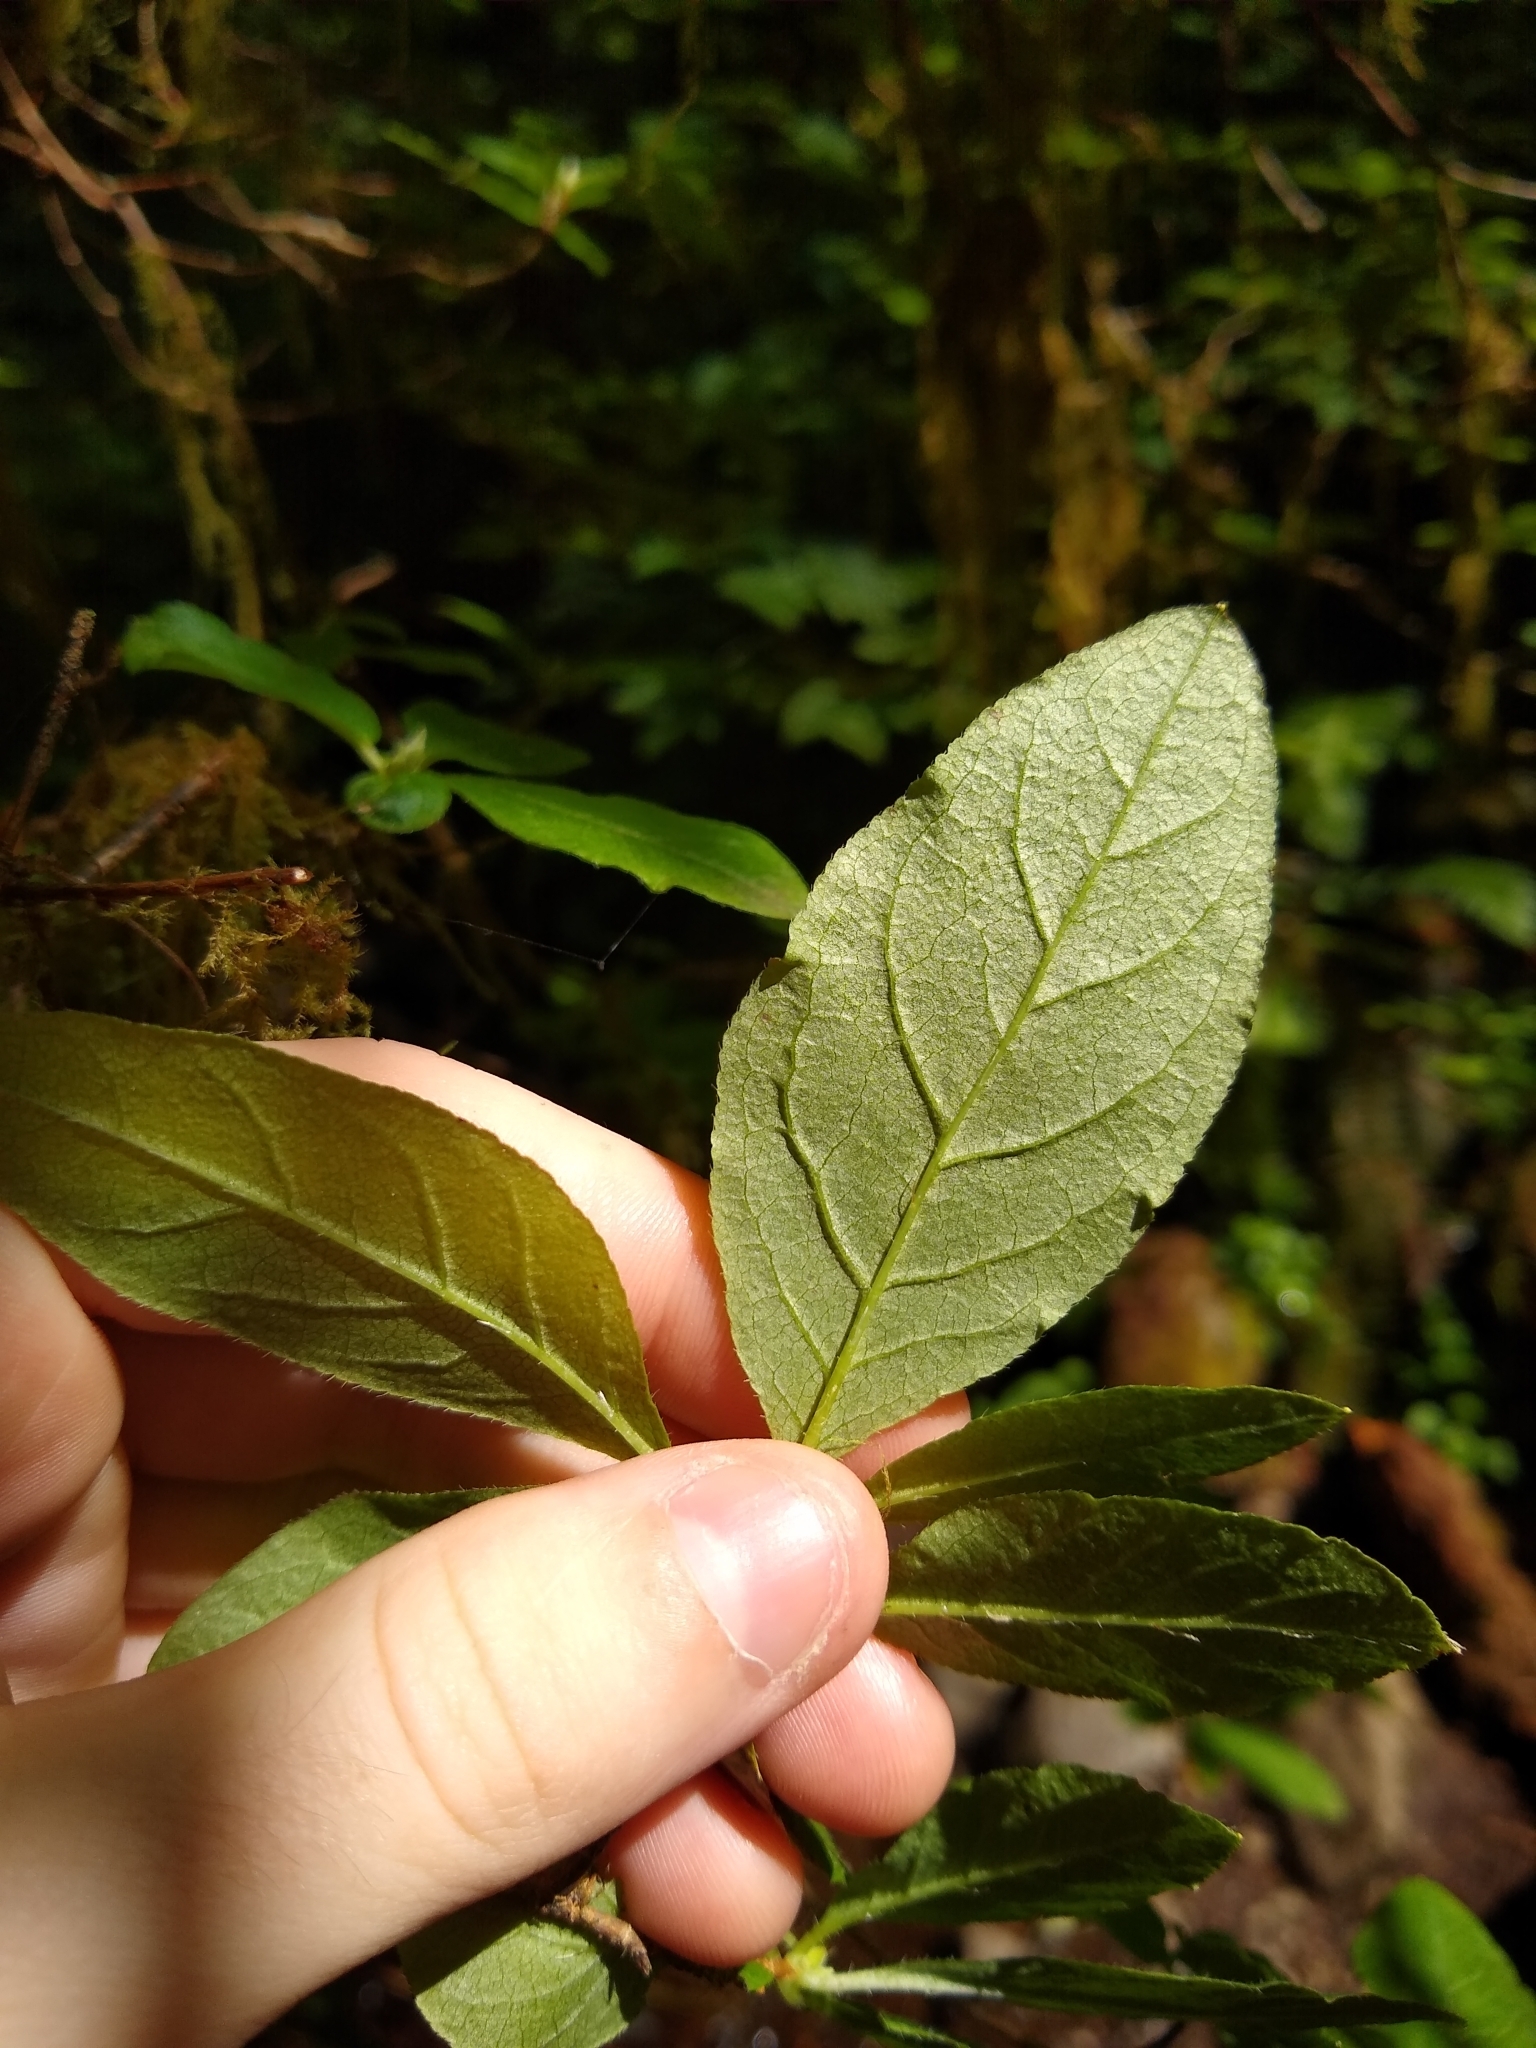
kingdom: Plantae
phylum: Tracheophyta
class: Magnoliopsida
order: Ericales
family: Ericaceae
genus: Rhododendron
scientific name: Rhododendron menziesii
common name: Pacific menziesia
